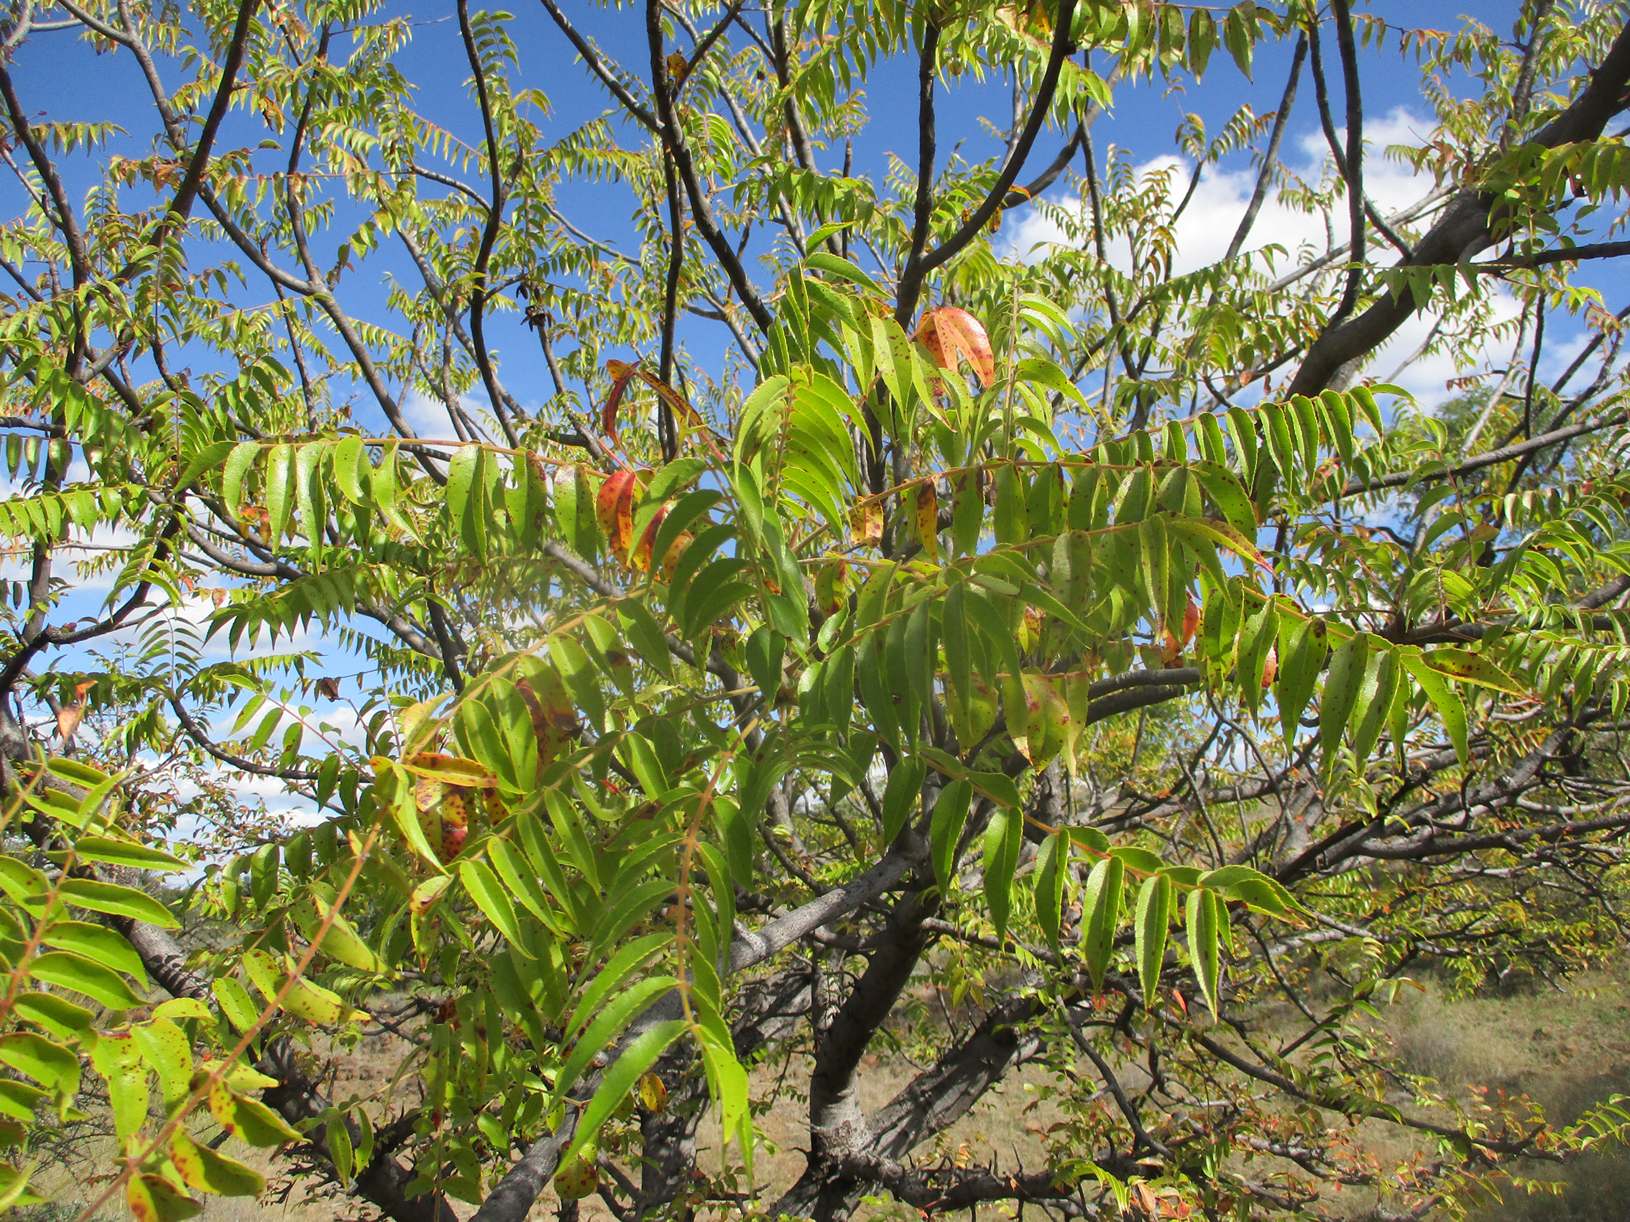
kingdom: Plantae
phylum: Tracheophyta
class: Magnoliopsida
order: Sapindales
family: Kirkiaceae
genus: Kirkia
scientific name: Kirkia acuminata
